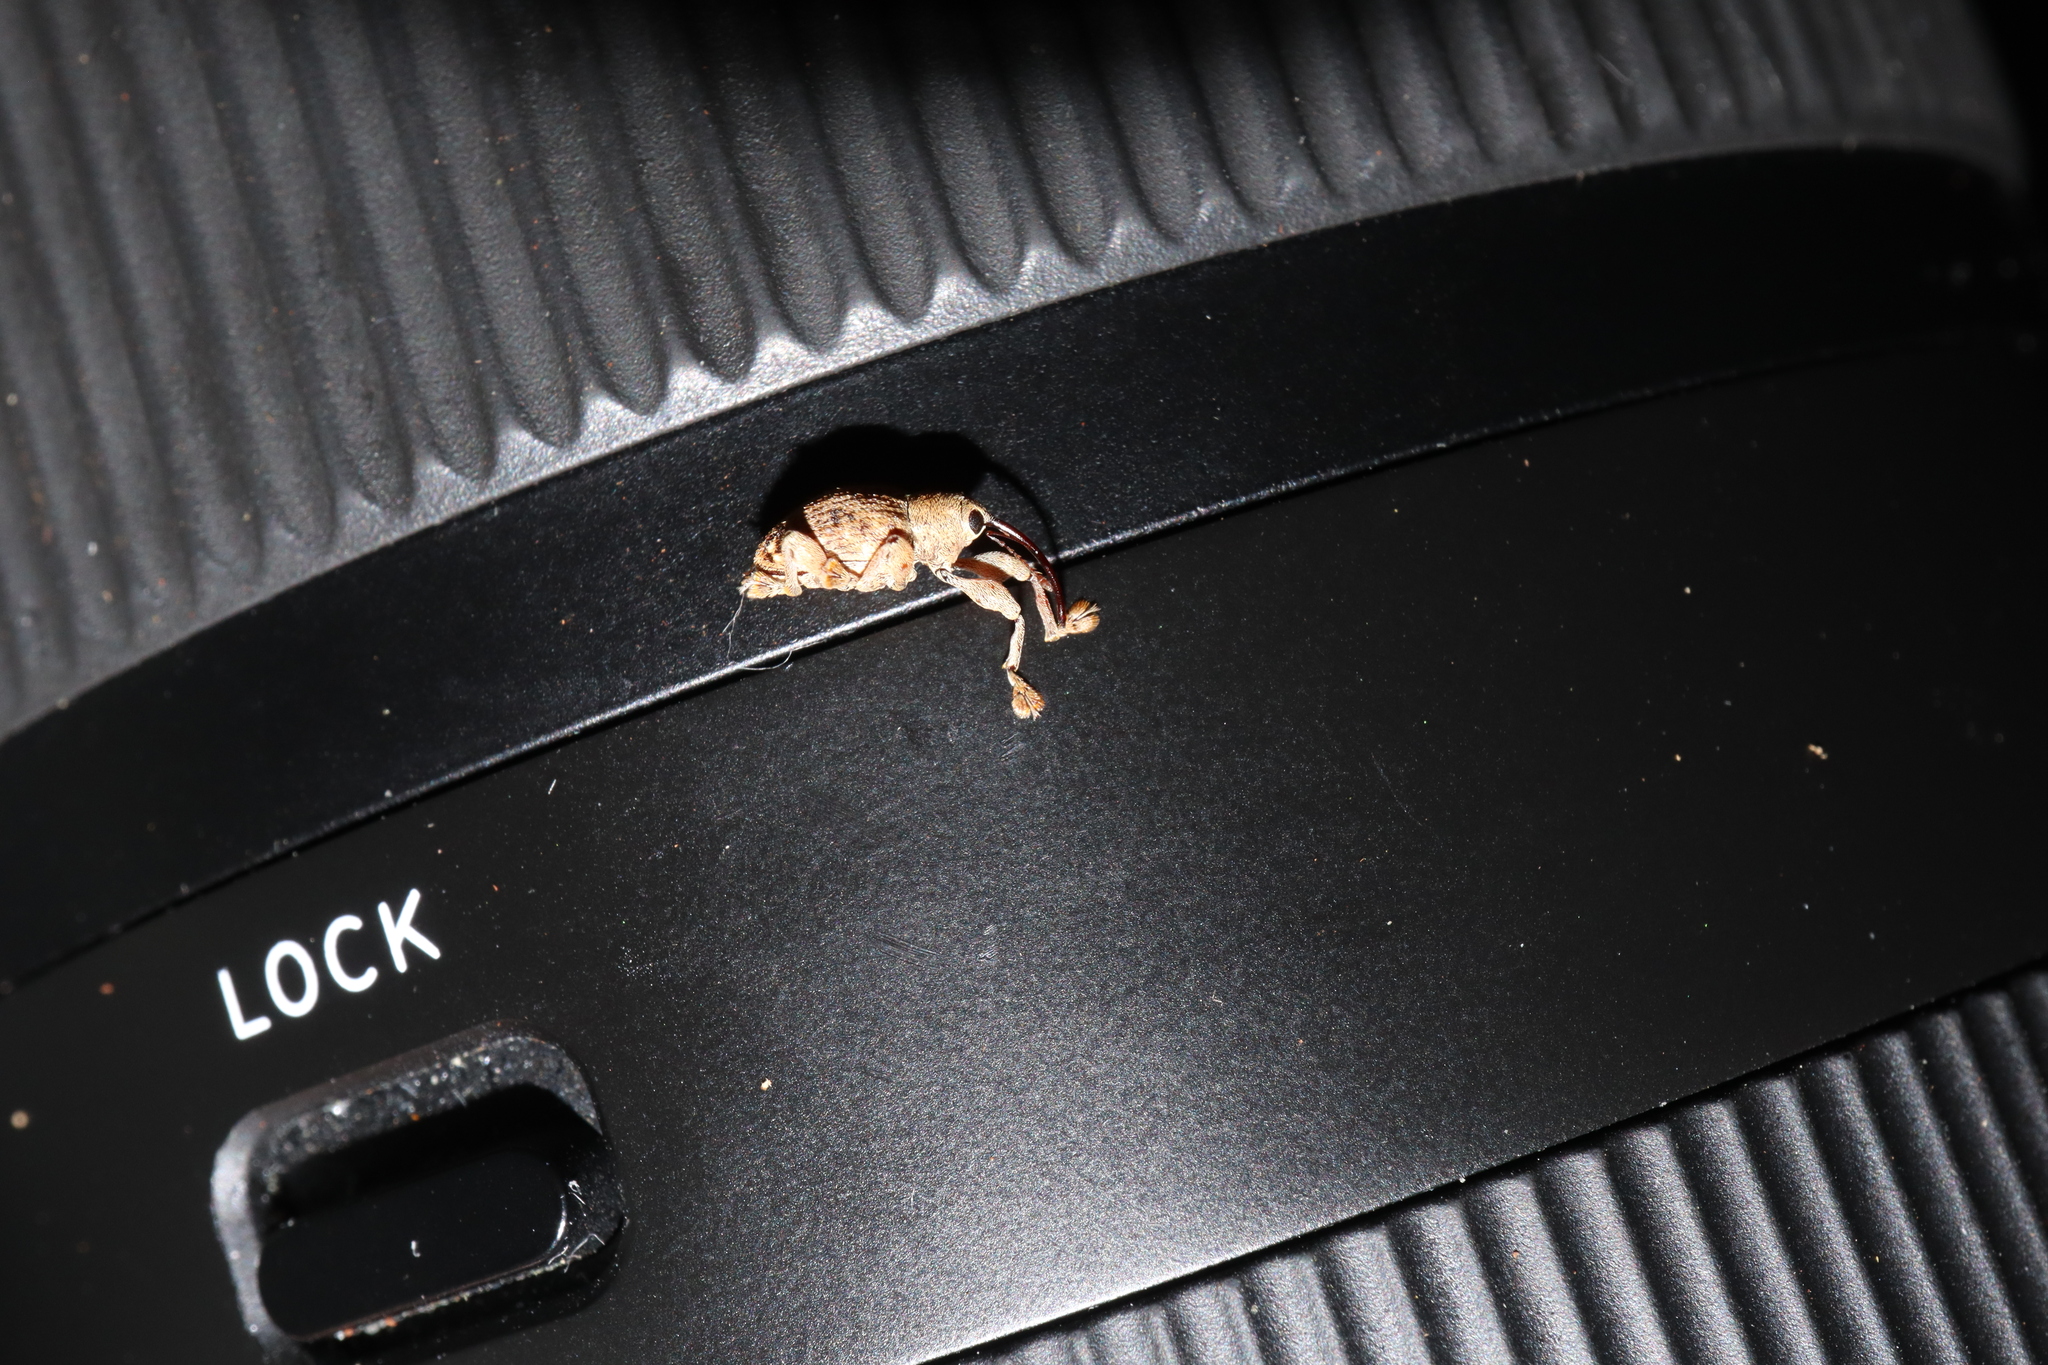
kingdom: Animalia
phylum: Arthropoda
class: Insecta
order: Coleoptera
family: Curculionidae
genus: Curculio
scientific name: Curculio submaculatus
